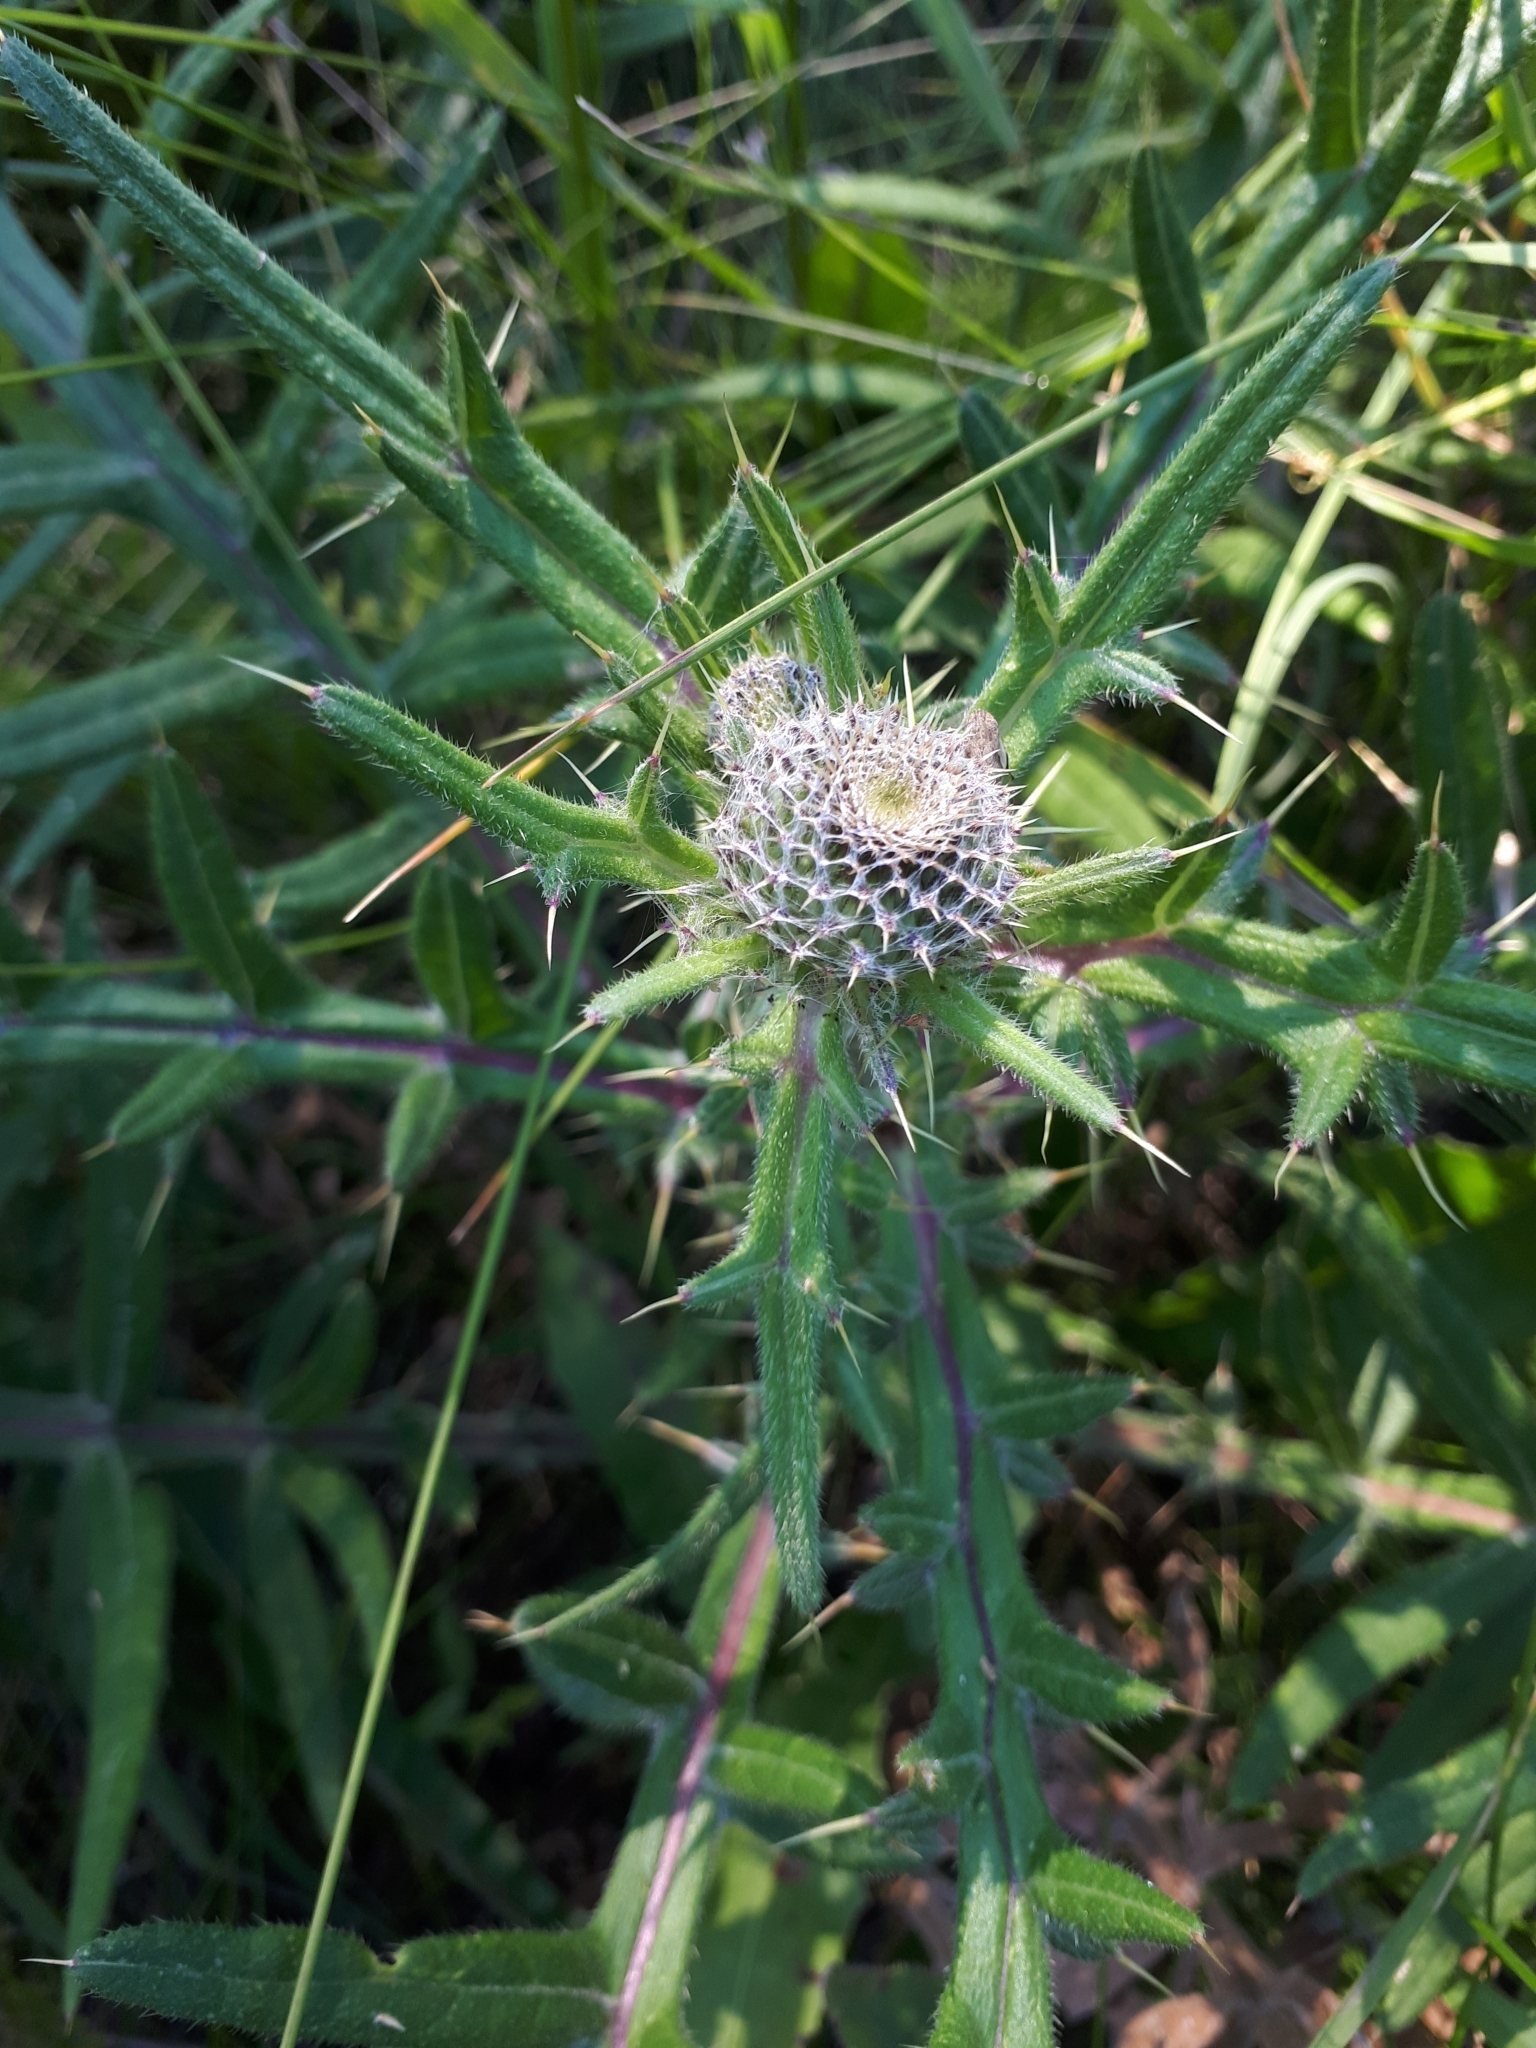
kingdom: Plantae
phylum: Tracheophyta
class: Magnoliopsida
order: Asterales
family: Asteraceae
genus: Lophiolepis
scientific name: Lophiolepis decussata
